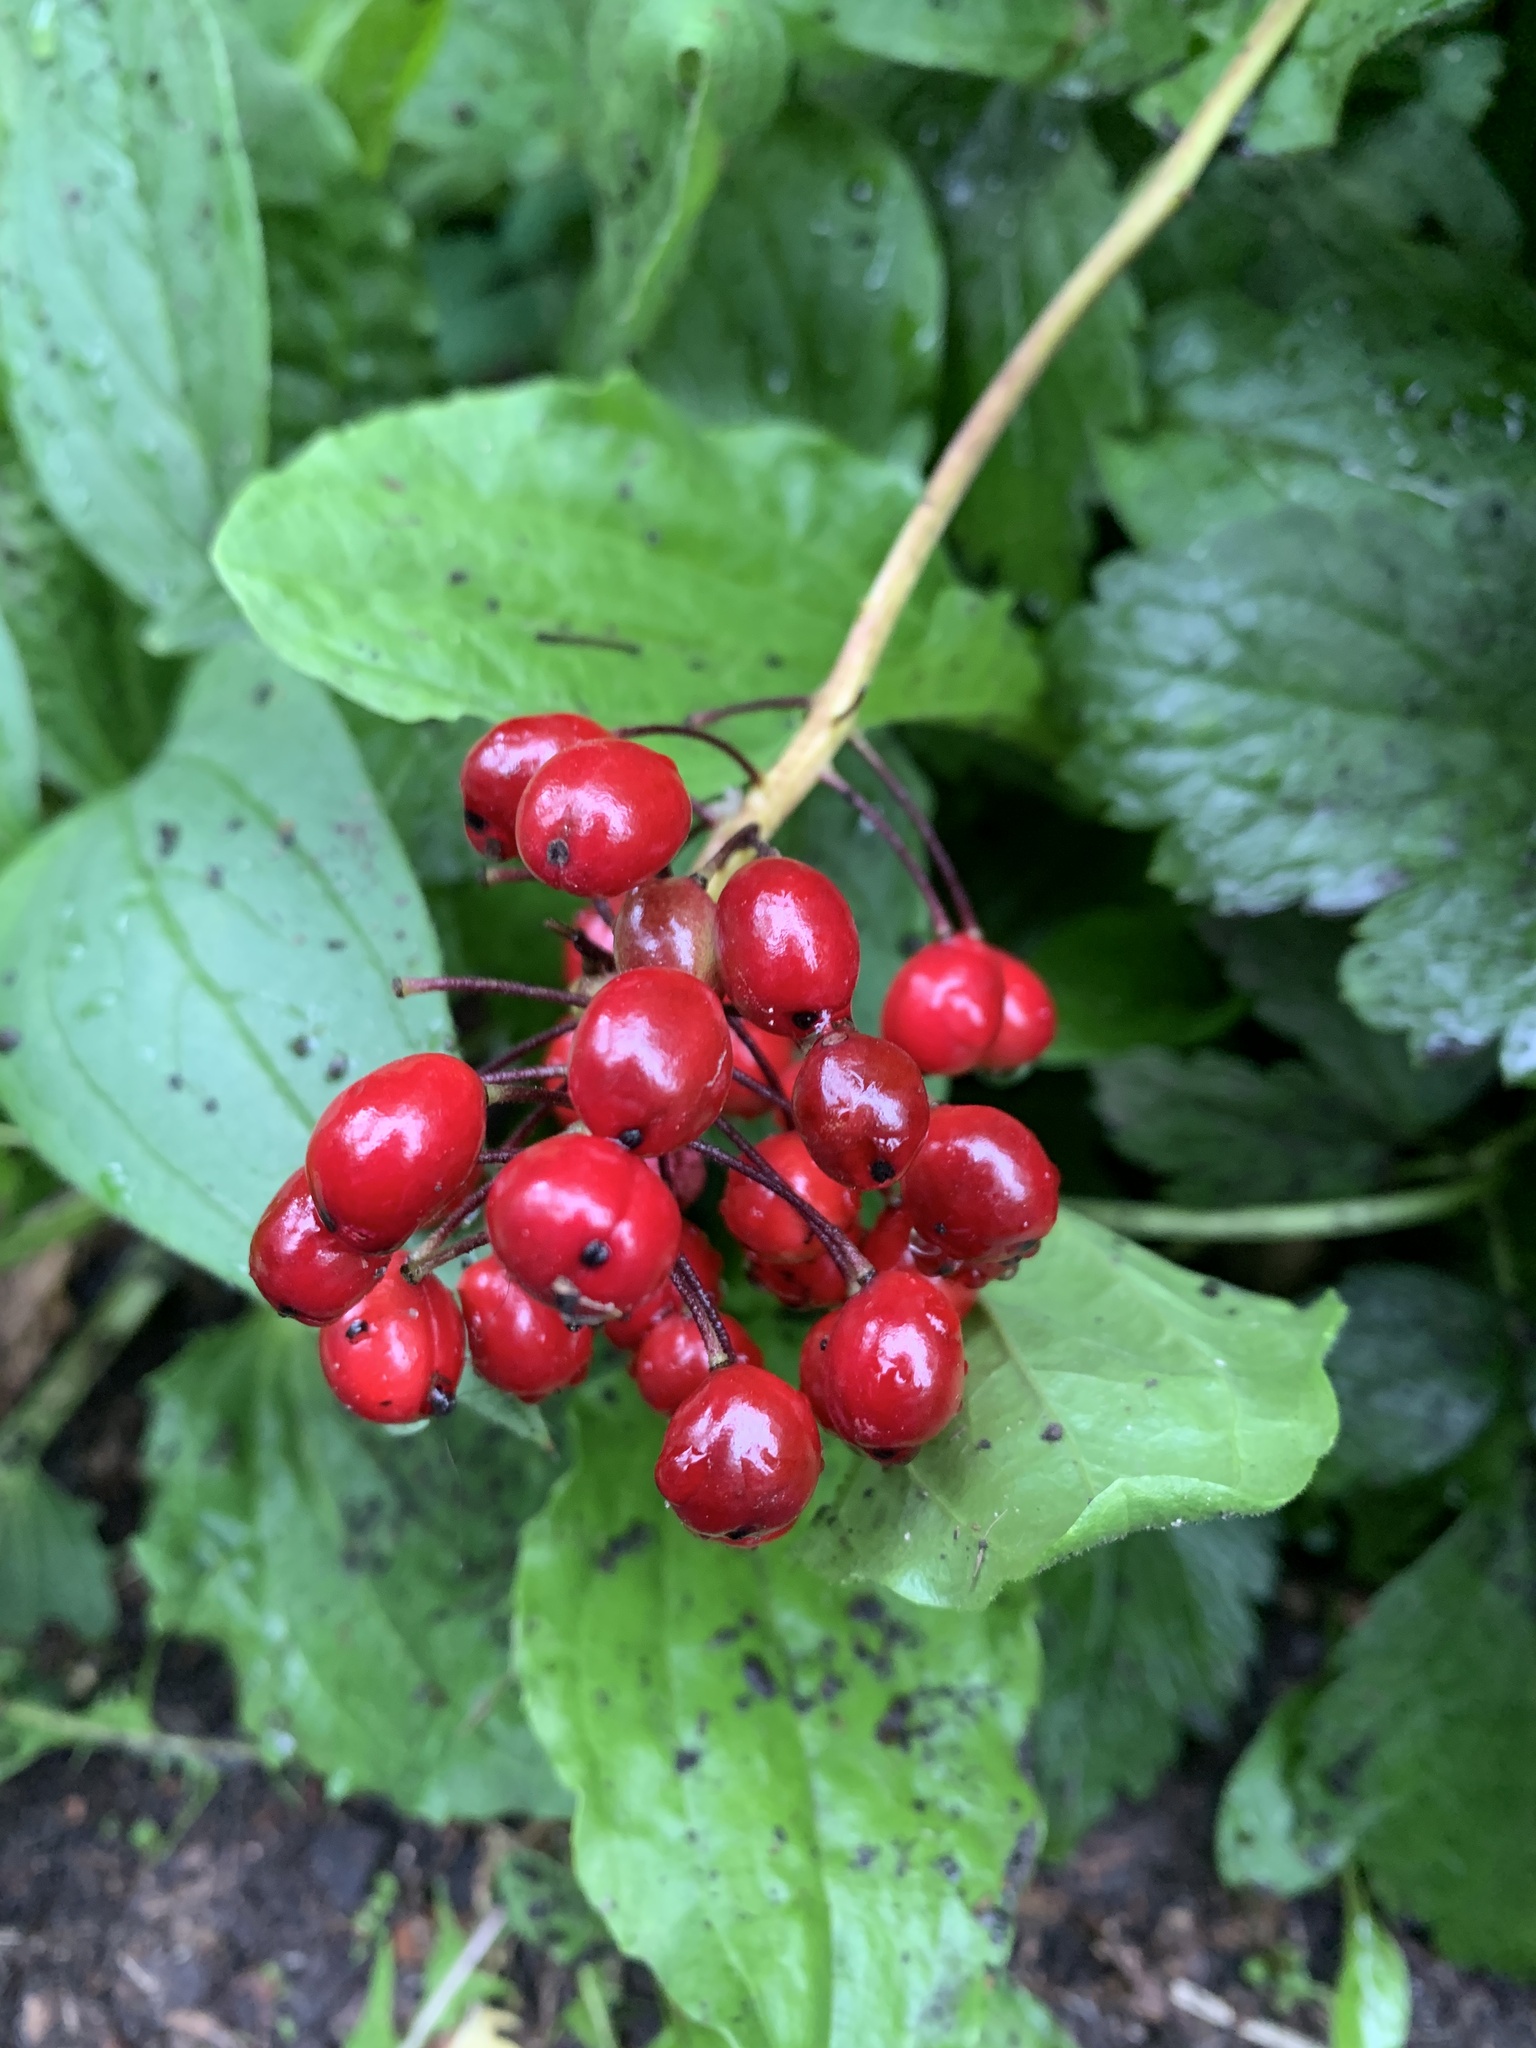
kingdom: Plantae
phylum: Tracheophyta
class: Magnoliopsida
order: Ranunculales
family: Ranunculaceae
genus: Actaea
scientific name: Actaea rubra
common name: Red baneberry
